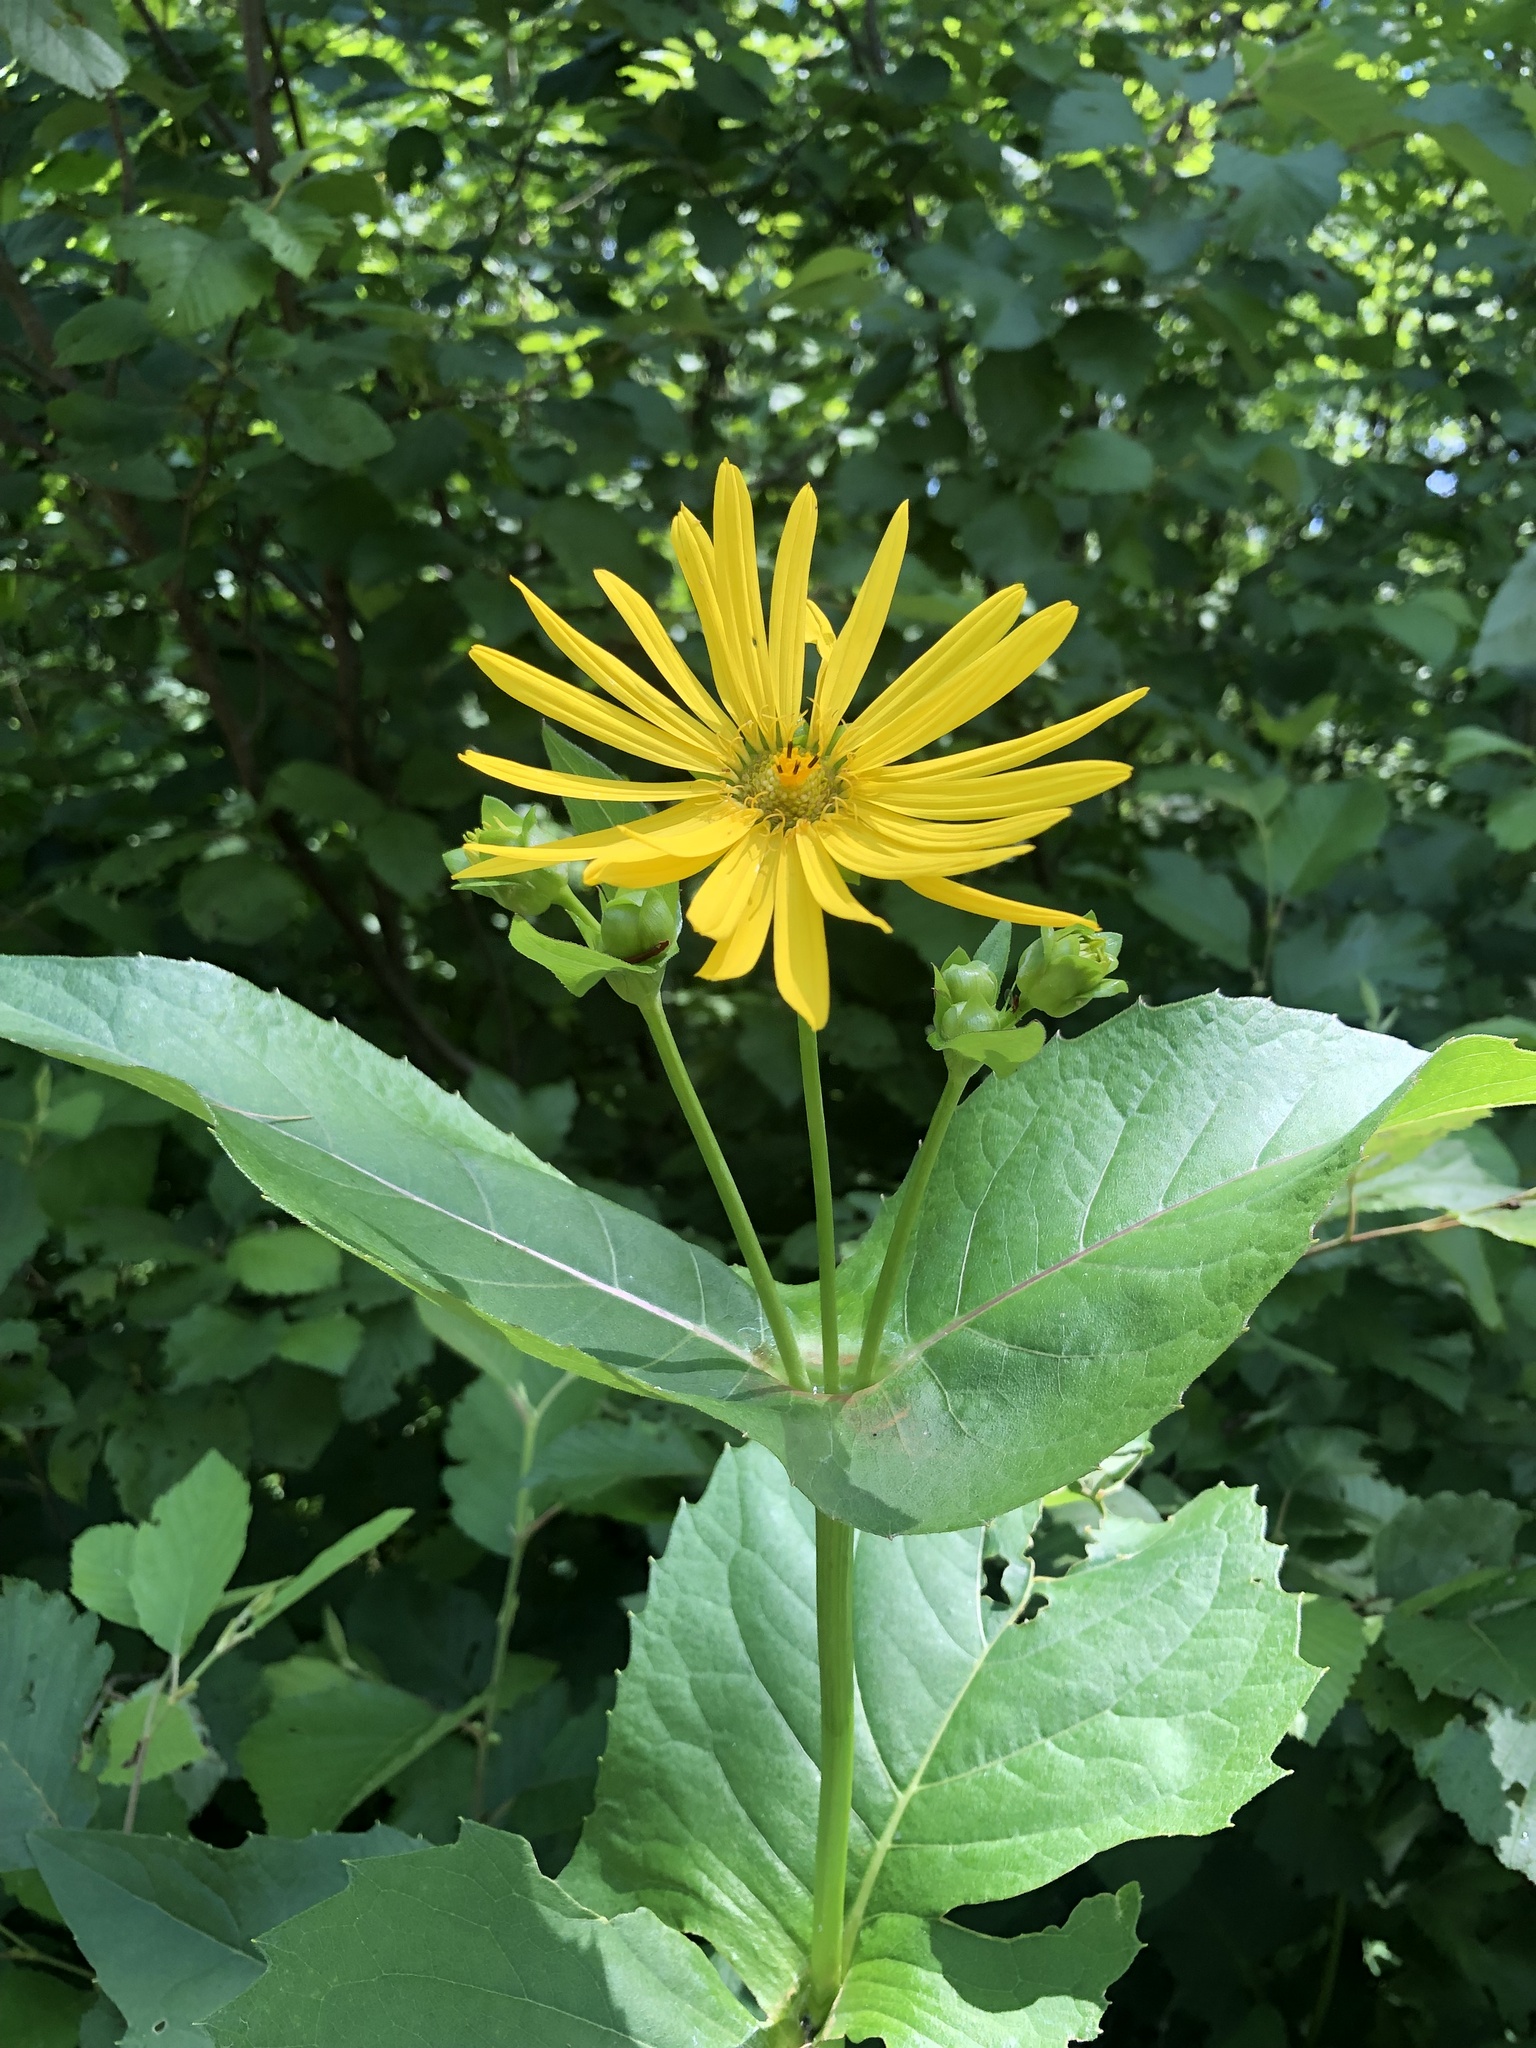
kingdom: Plantae
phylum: Tracheophyta
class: Magnoliopsida
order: Asterales
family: Asteraceae
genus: Silphium
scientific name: Silphium perfoliatum
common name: Cup-plant
